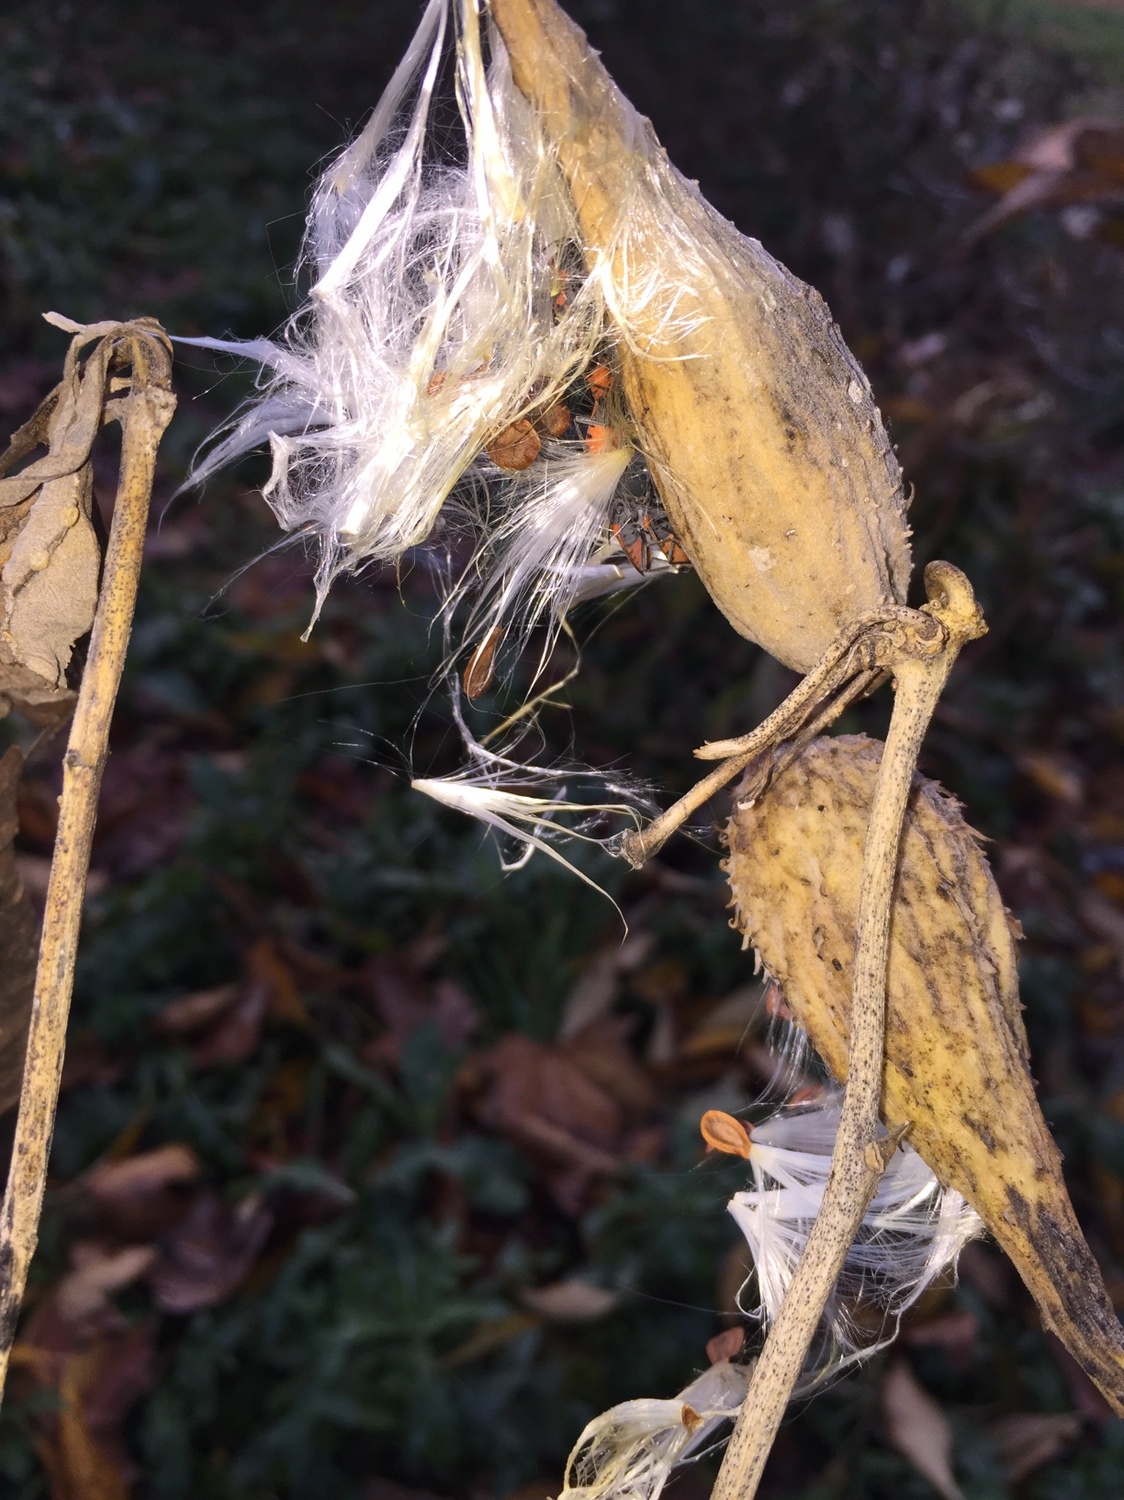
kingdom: Plantae
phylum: Tracheophyta
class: Magnoliopsida
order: Gentianales
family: Apocynaceae
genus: Asclepias
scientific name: Asclepias syriaca
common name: Common milkweed
